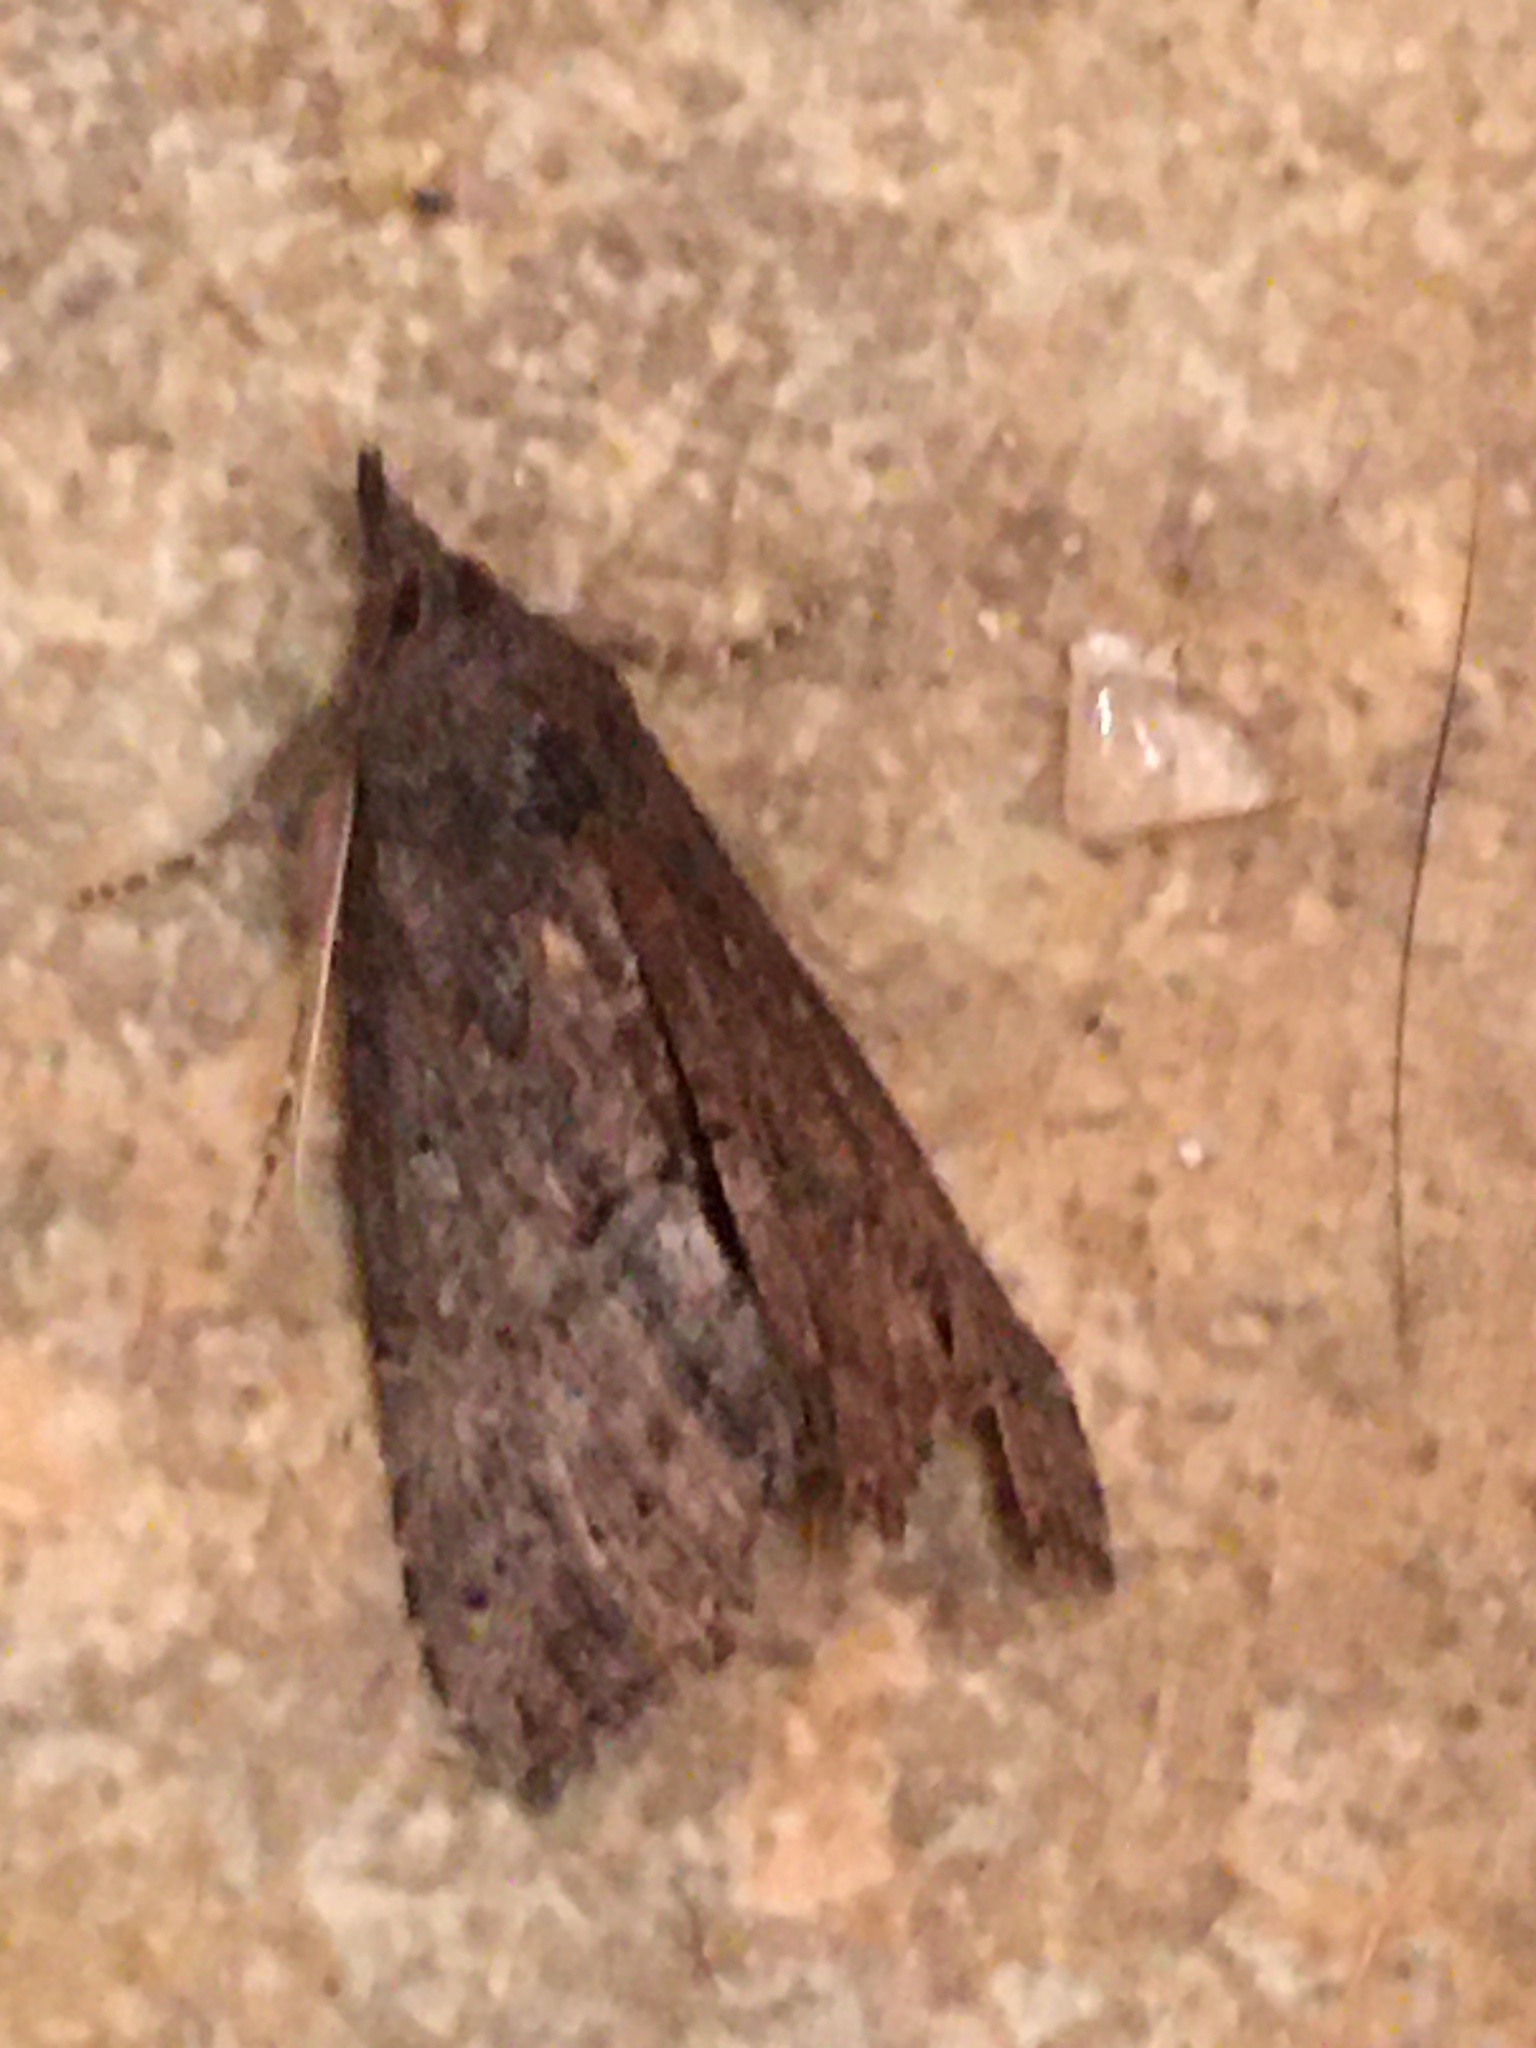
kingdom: Animalia
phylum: Arthropoda
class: Insecta
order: Lepidoptera
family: Erebidae
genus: Hypena
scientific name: Hypena scabra
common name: Green cloverworm
